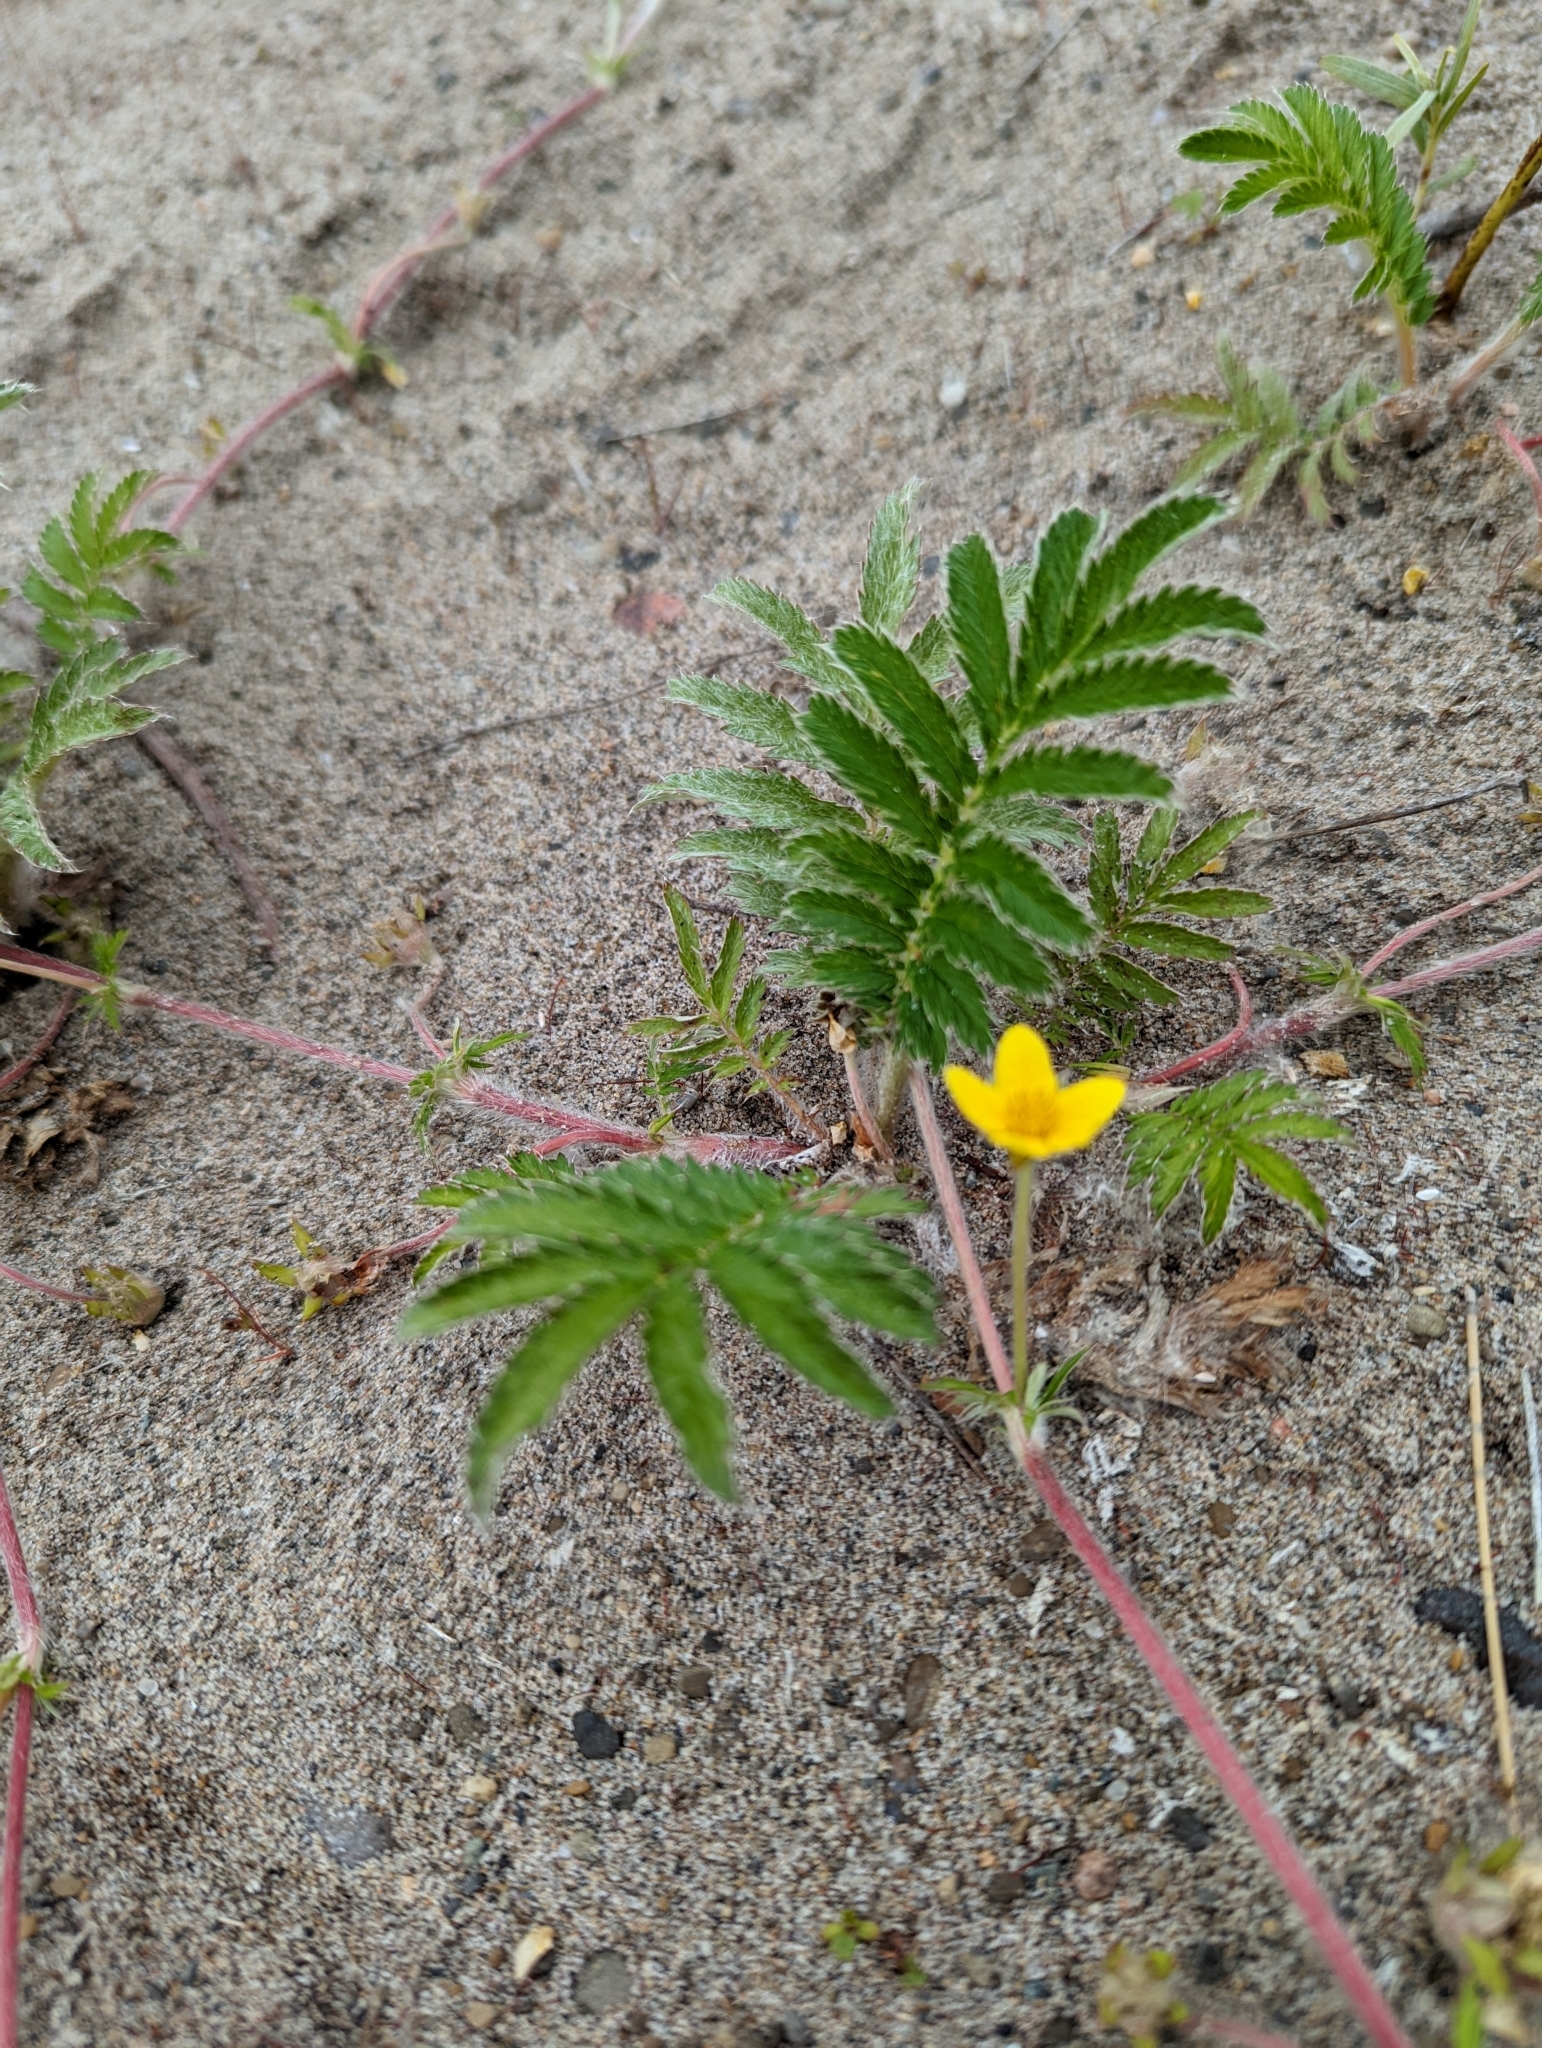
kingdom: Plantae
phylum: Tracheophyta
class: Magnoliopsida
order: Rosales
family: Rosaceae
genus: Argentina
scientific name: Argentina anserina
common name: Common silverweed
